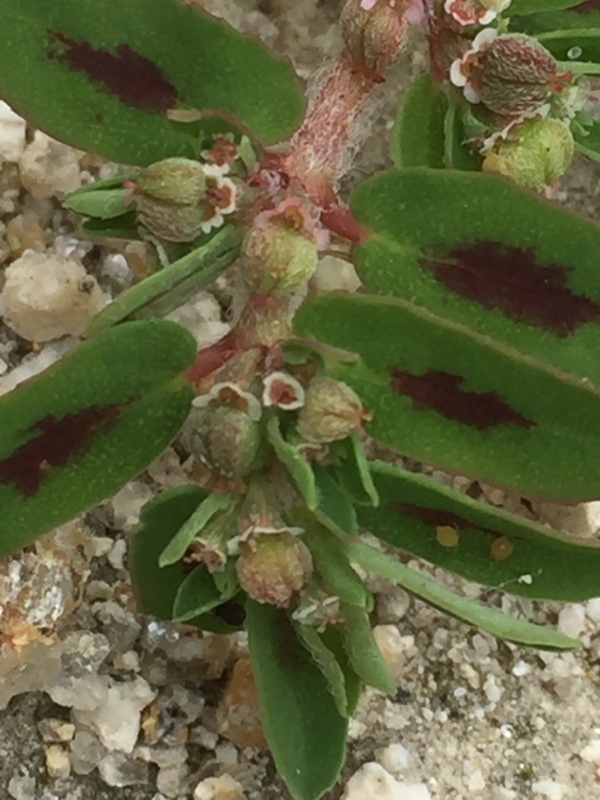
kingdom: Plantae
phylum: Tracheophyta
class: Magnoliopsida
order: Malpighiales
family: Euphorbiaceae
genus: Euphorbia
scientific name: Euphorbia maculata
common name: Spotted spurge
